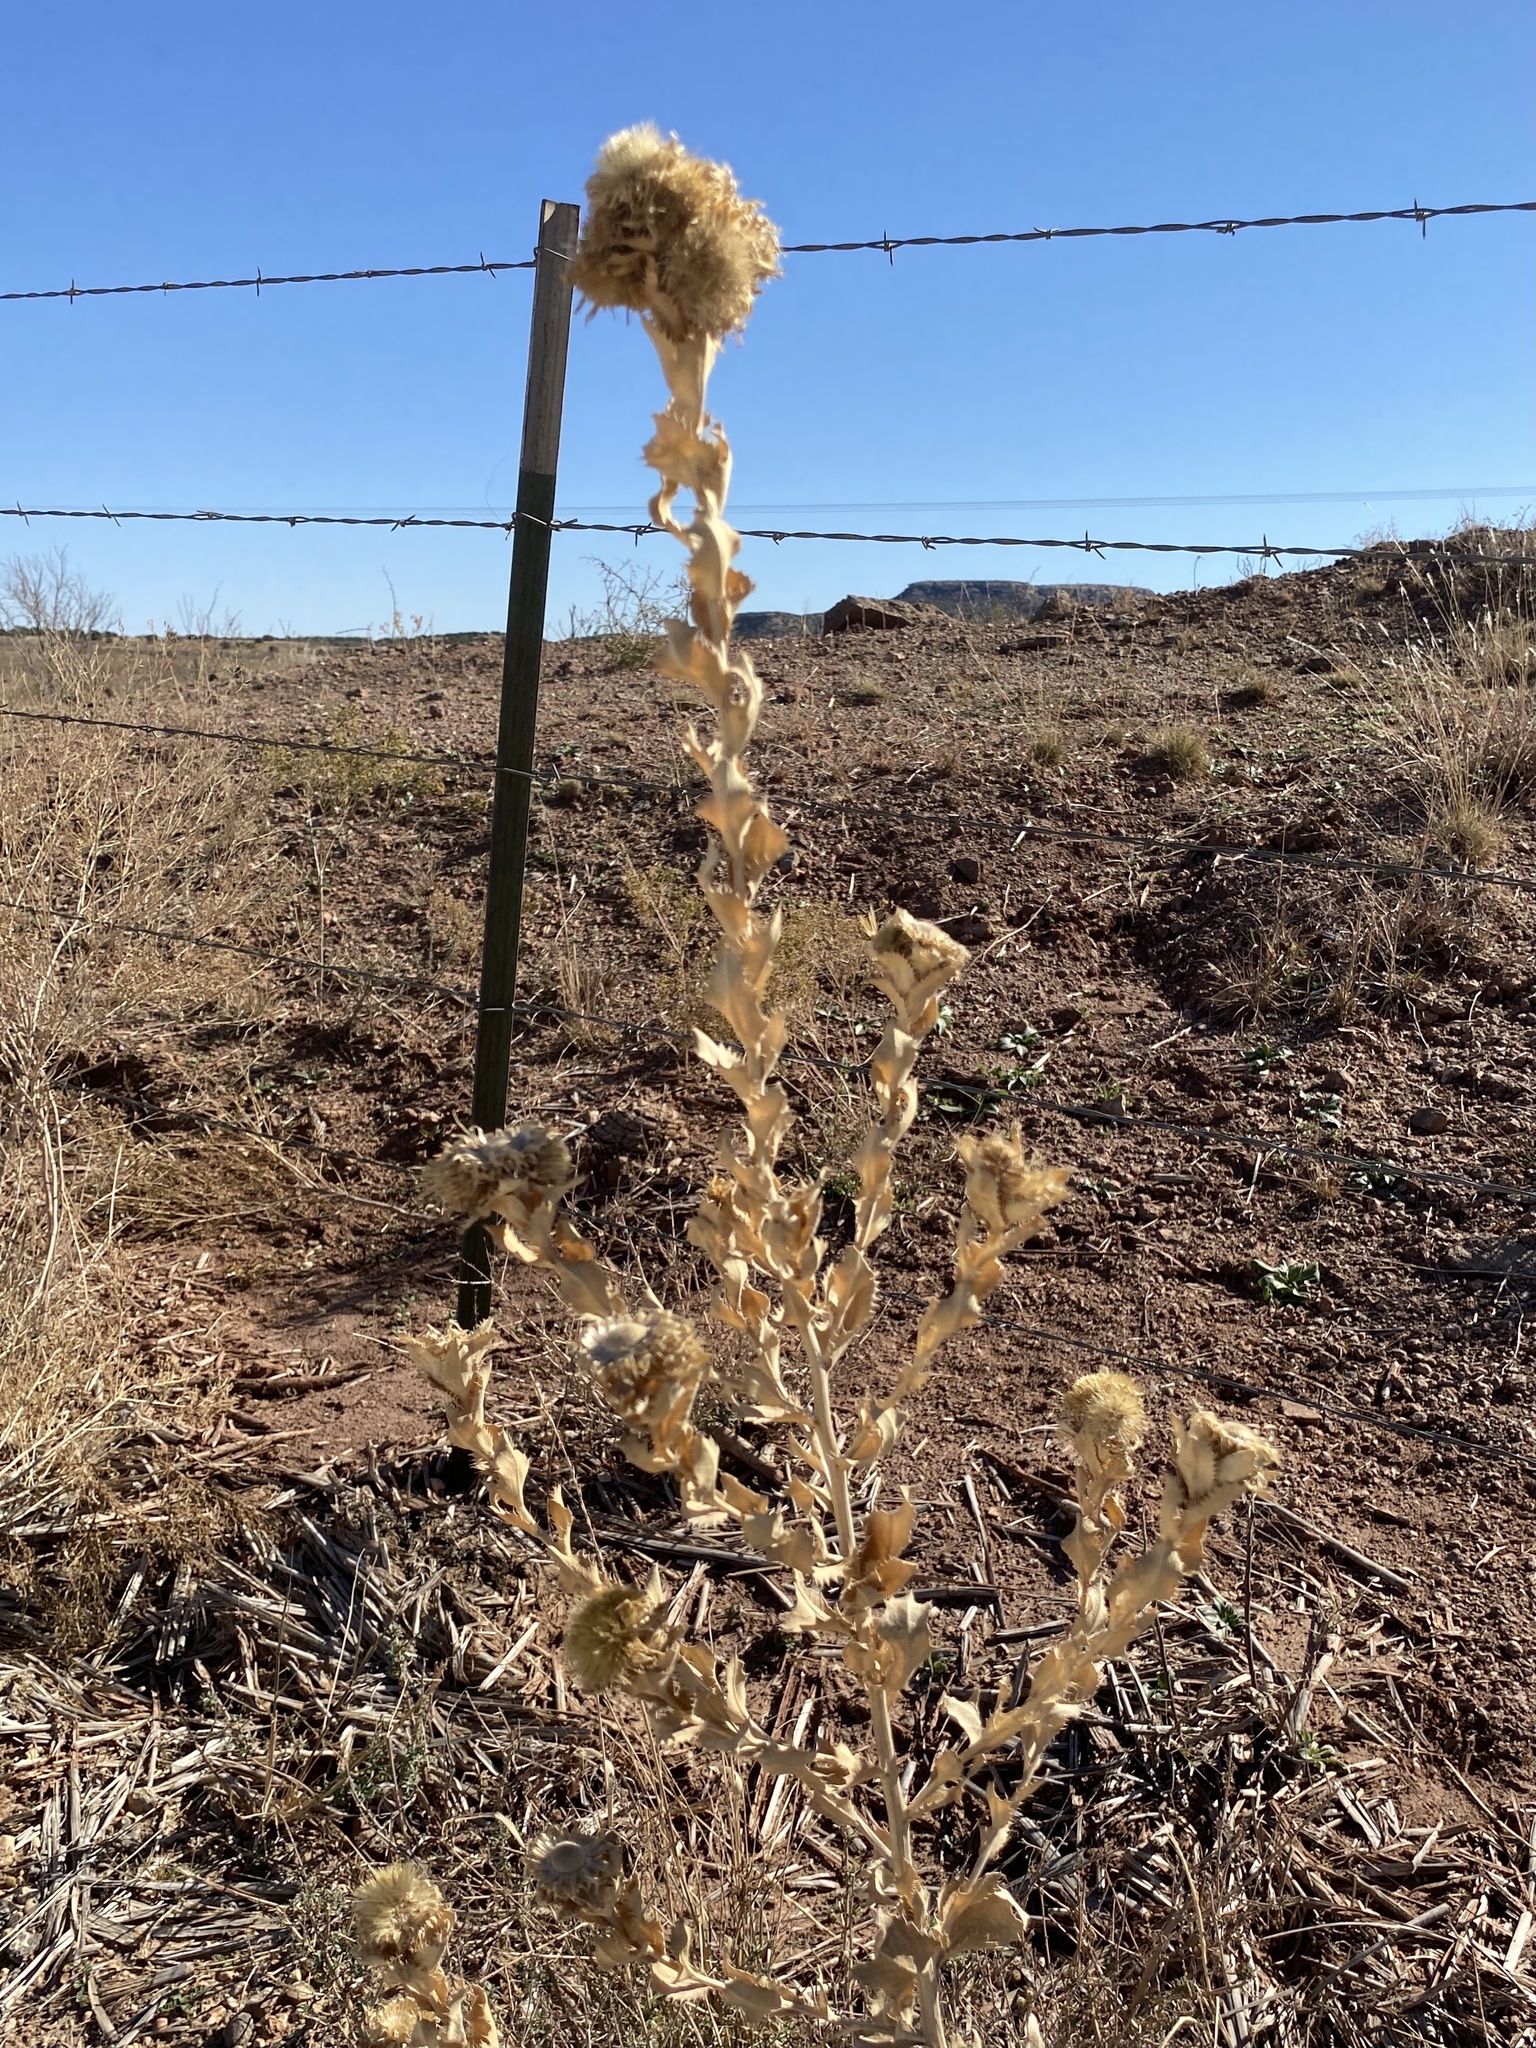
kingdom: Plantae
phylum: Tracheophyta
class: Magnoliopsida
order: Asterales
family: Asteraceae
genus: Grindelia
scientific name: Grindelia ciliata
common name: Goldenweed
